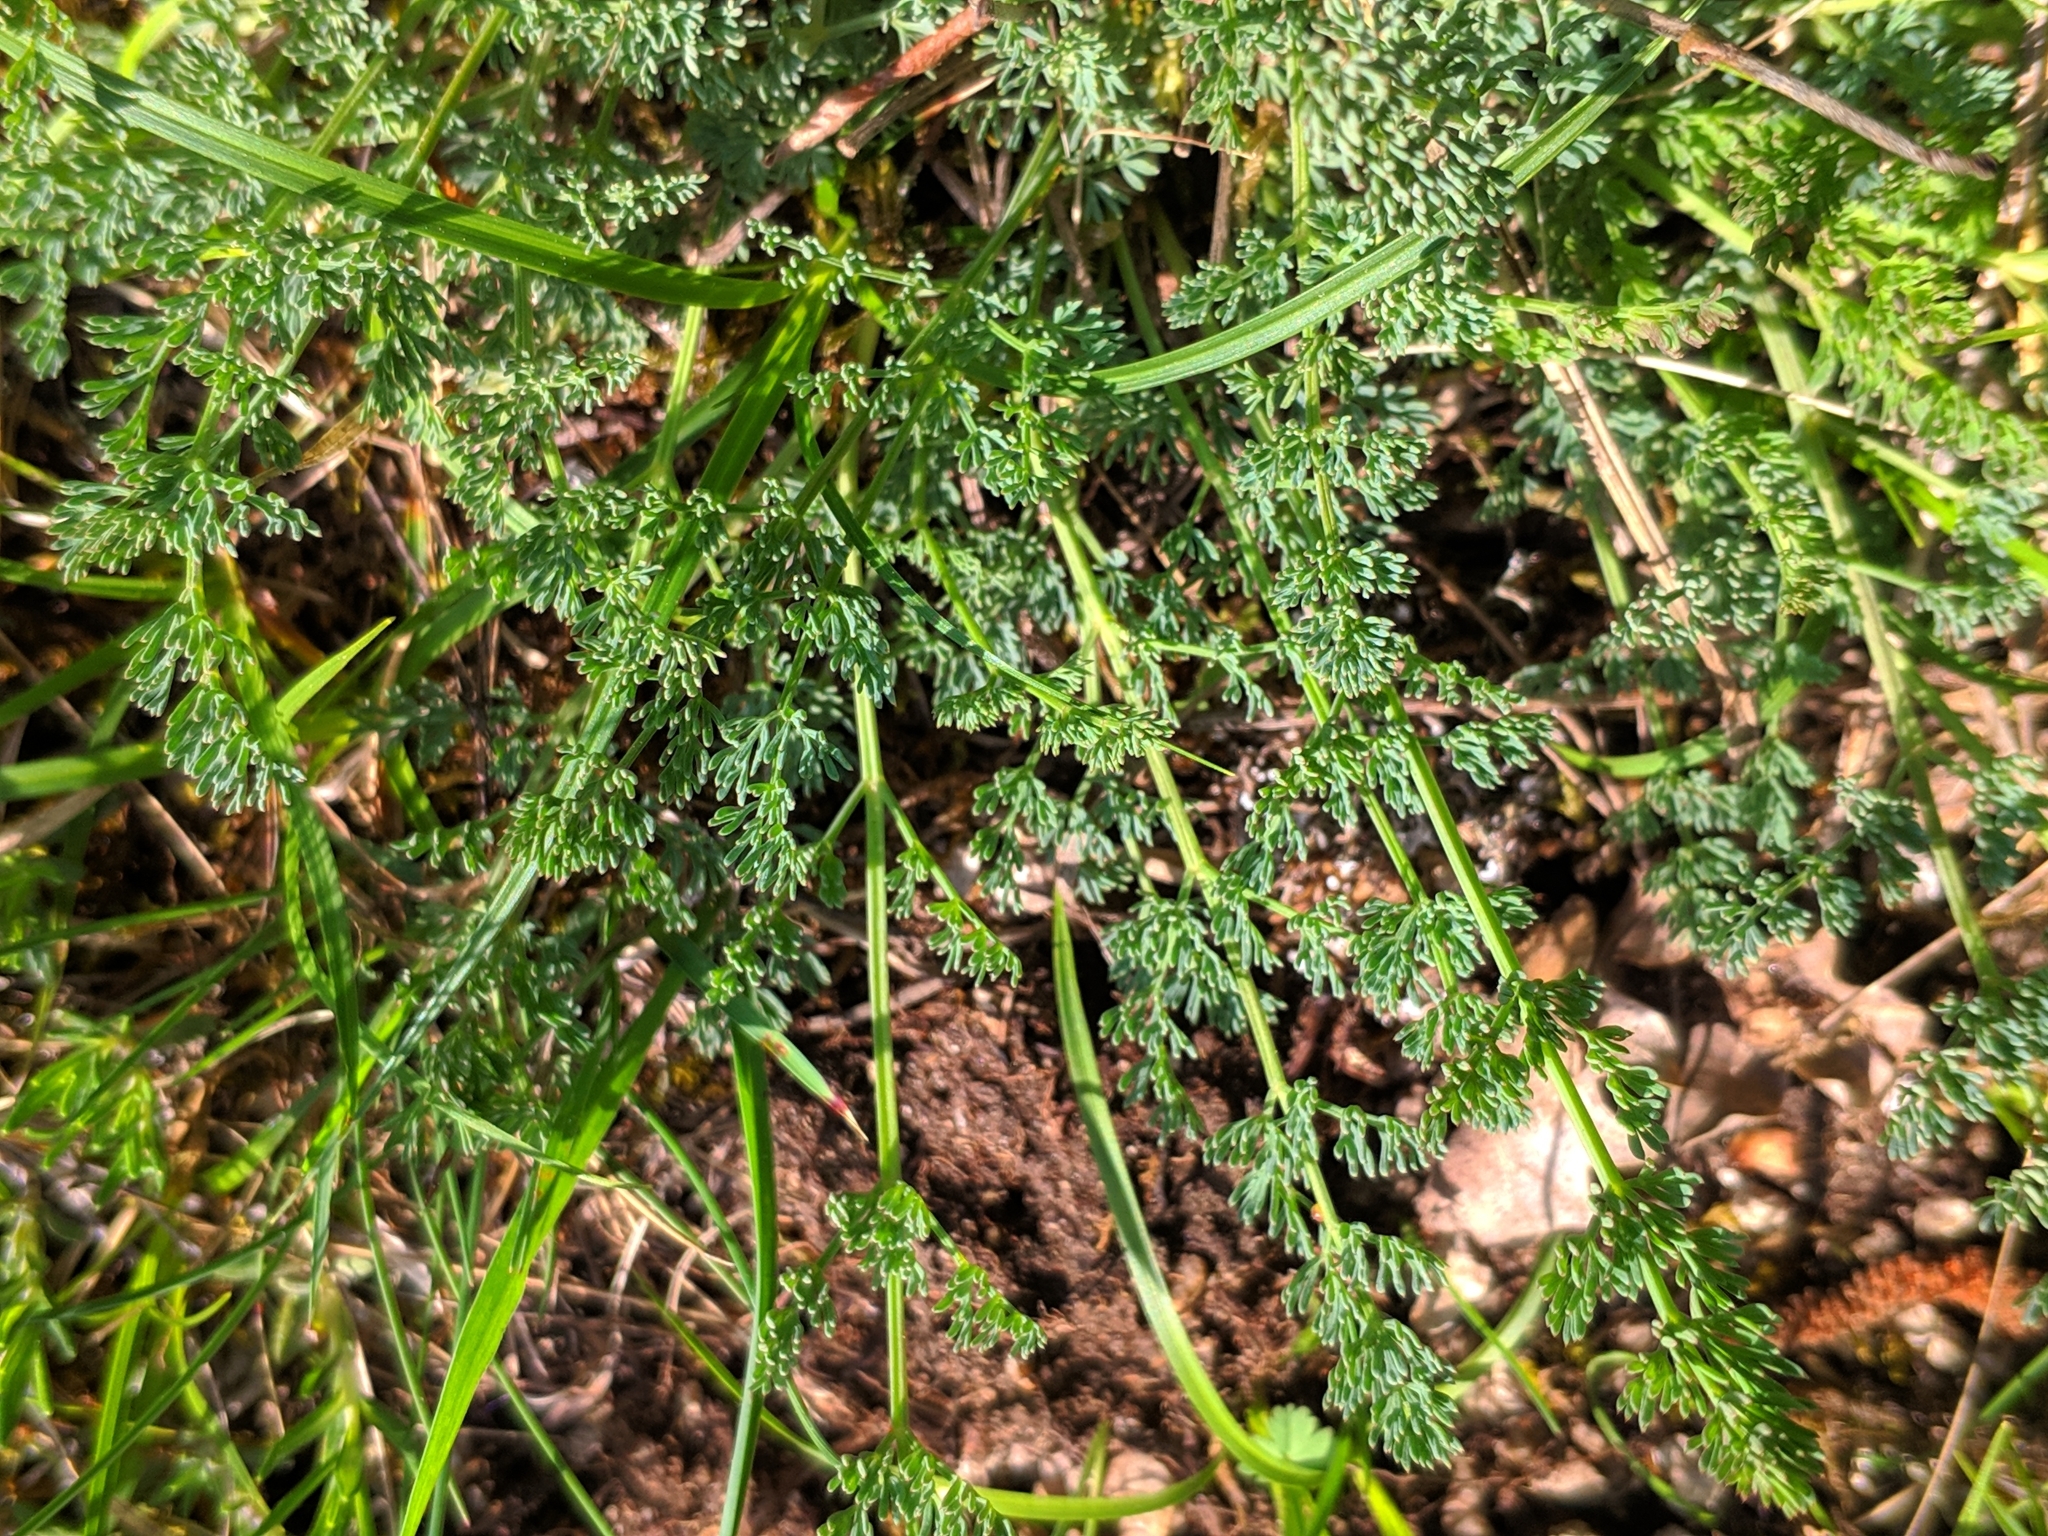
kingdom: Plantae
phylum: Tracheophyta
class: Magnoliopsida
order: Apiales
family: Apiaceae
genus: Hippomarathrum
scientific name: Hippomarathrum
